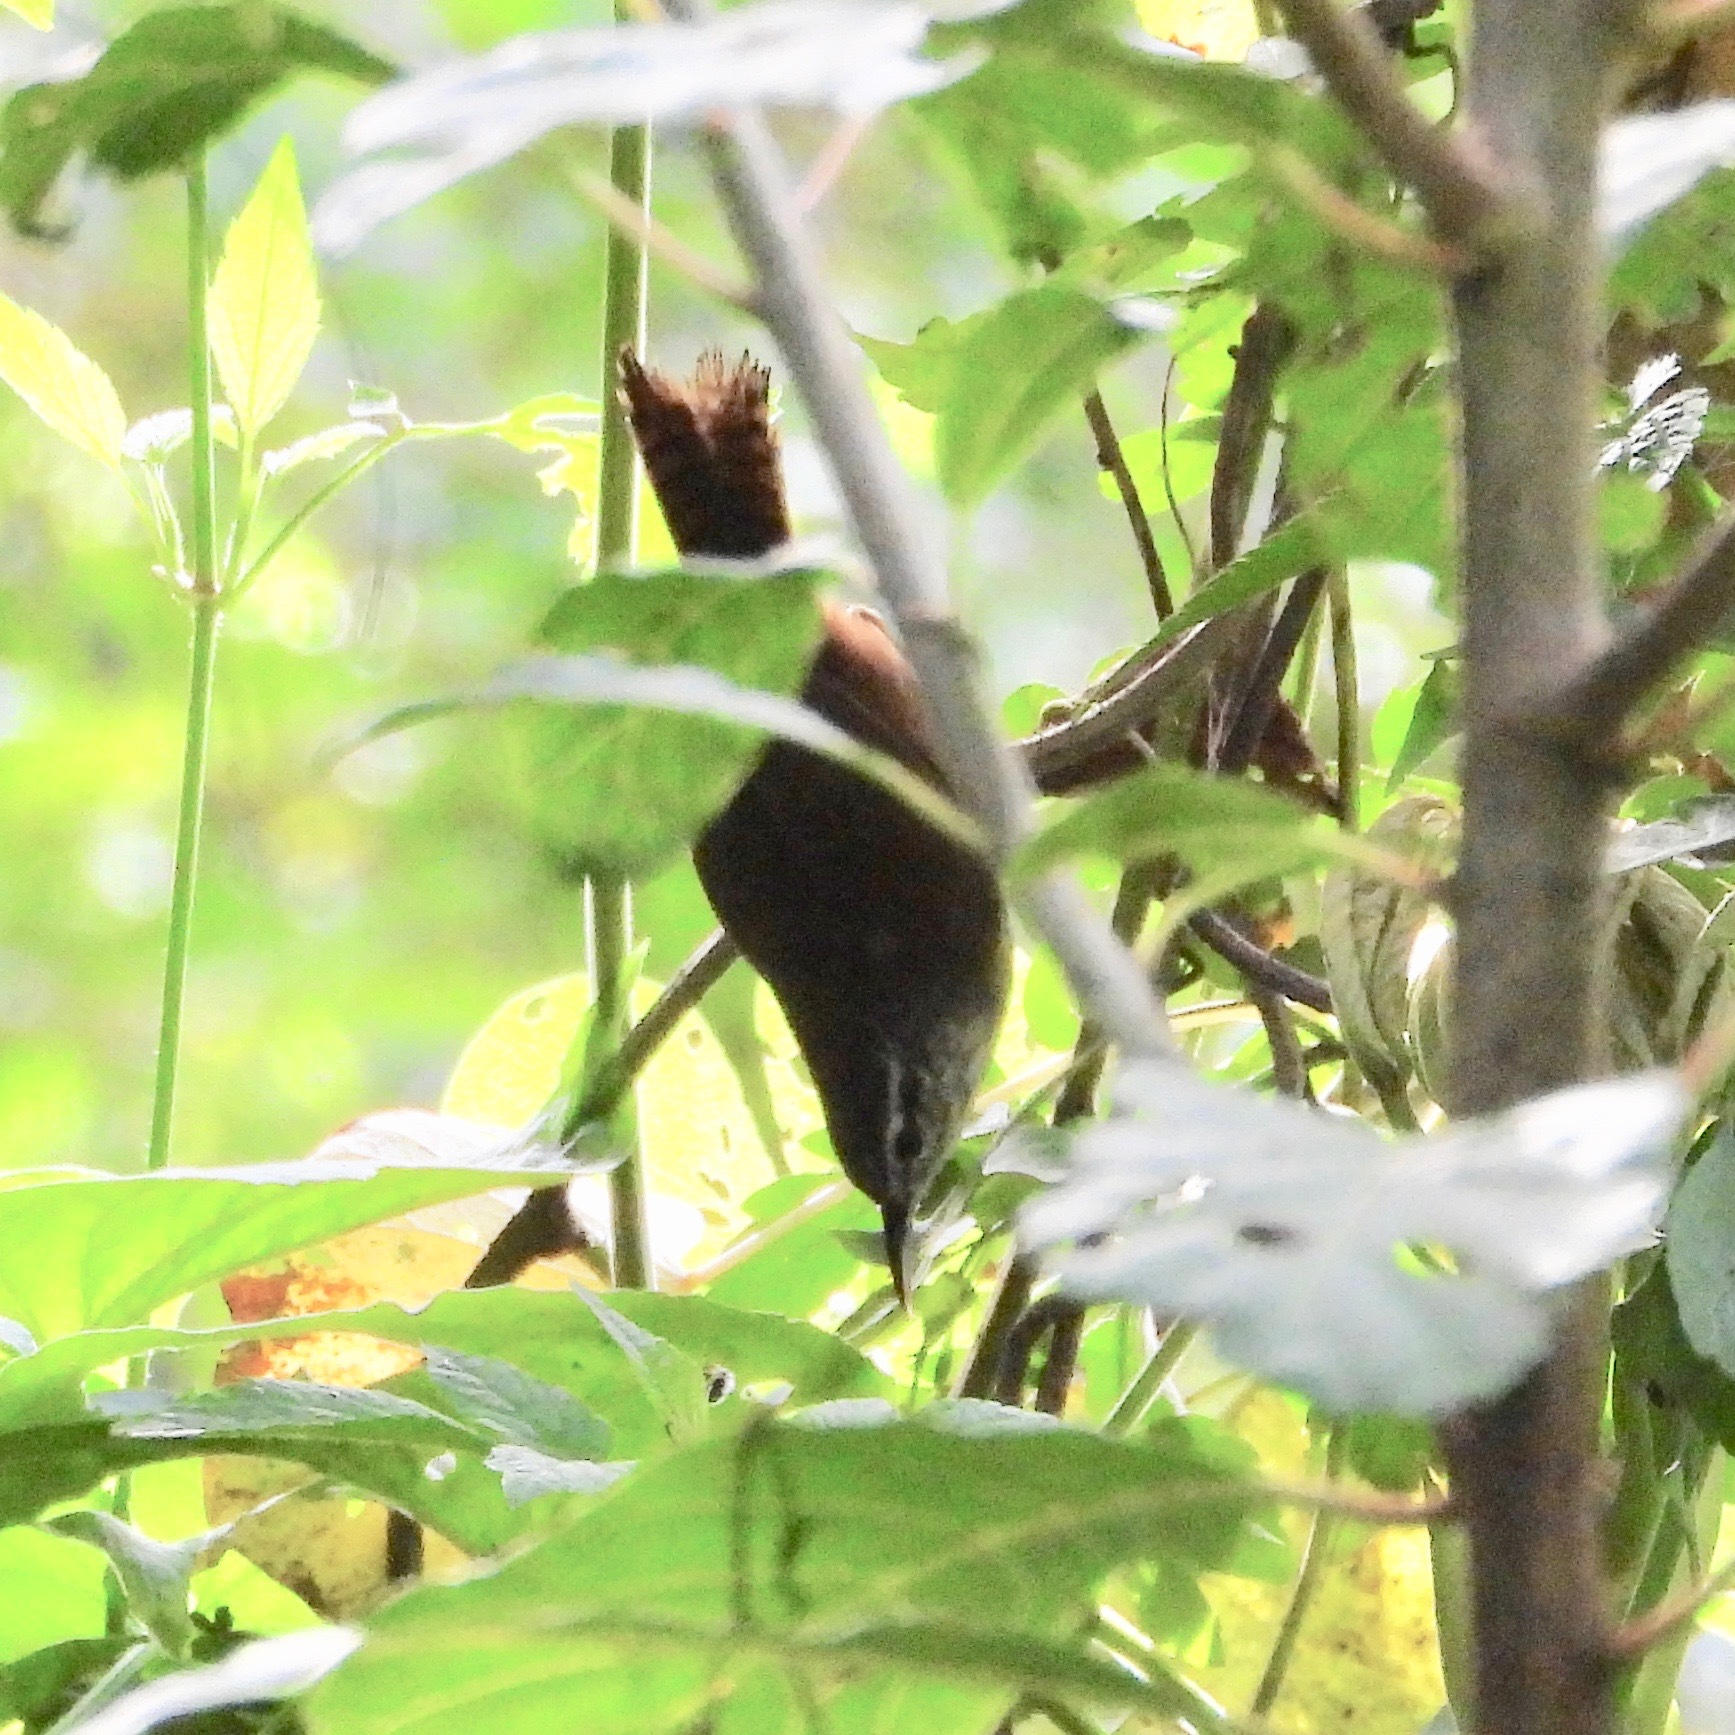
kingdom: Animalia
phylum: Chordata
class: Aves
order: Passeriformes
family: Troglodytidae
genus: Cantorchilus
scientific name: Cantorchilus modestus
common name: Cabanis's wren
